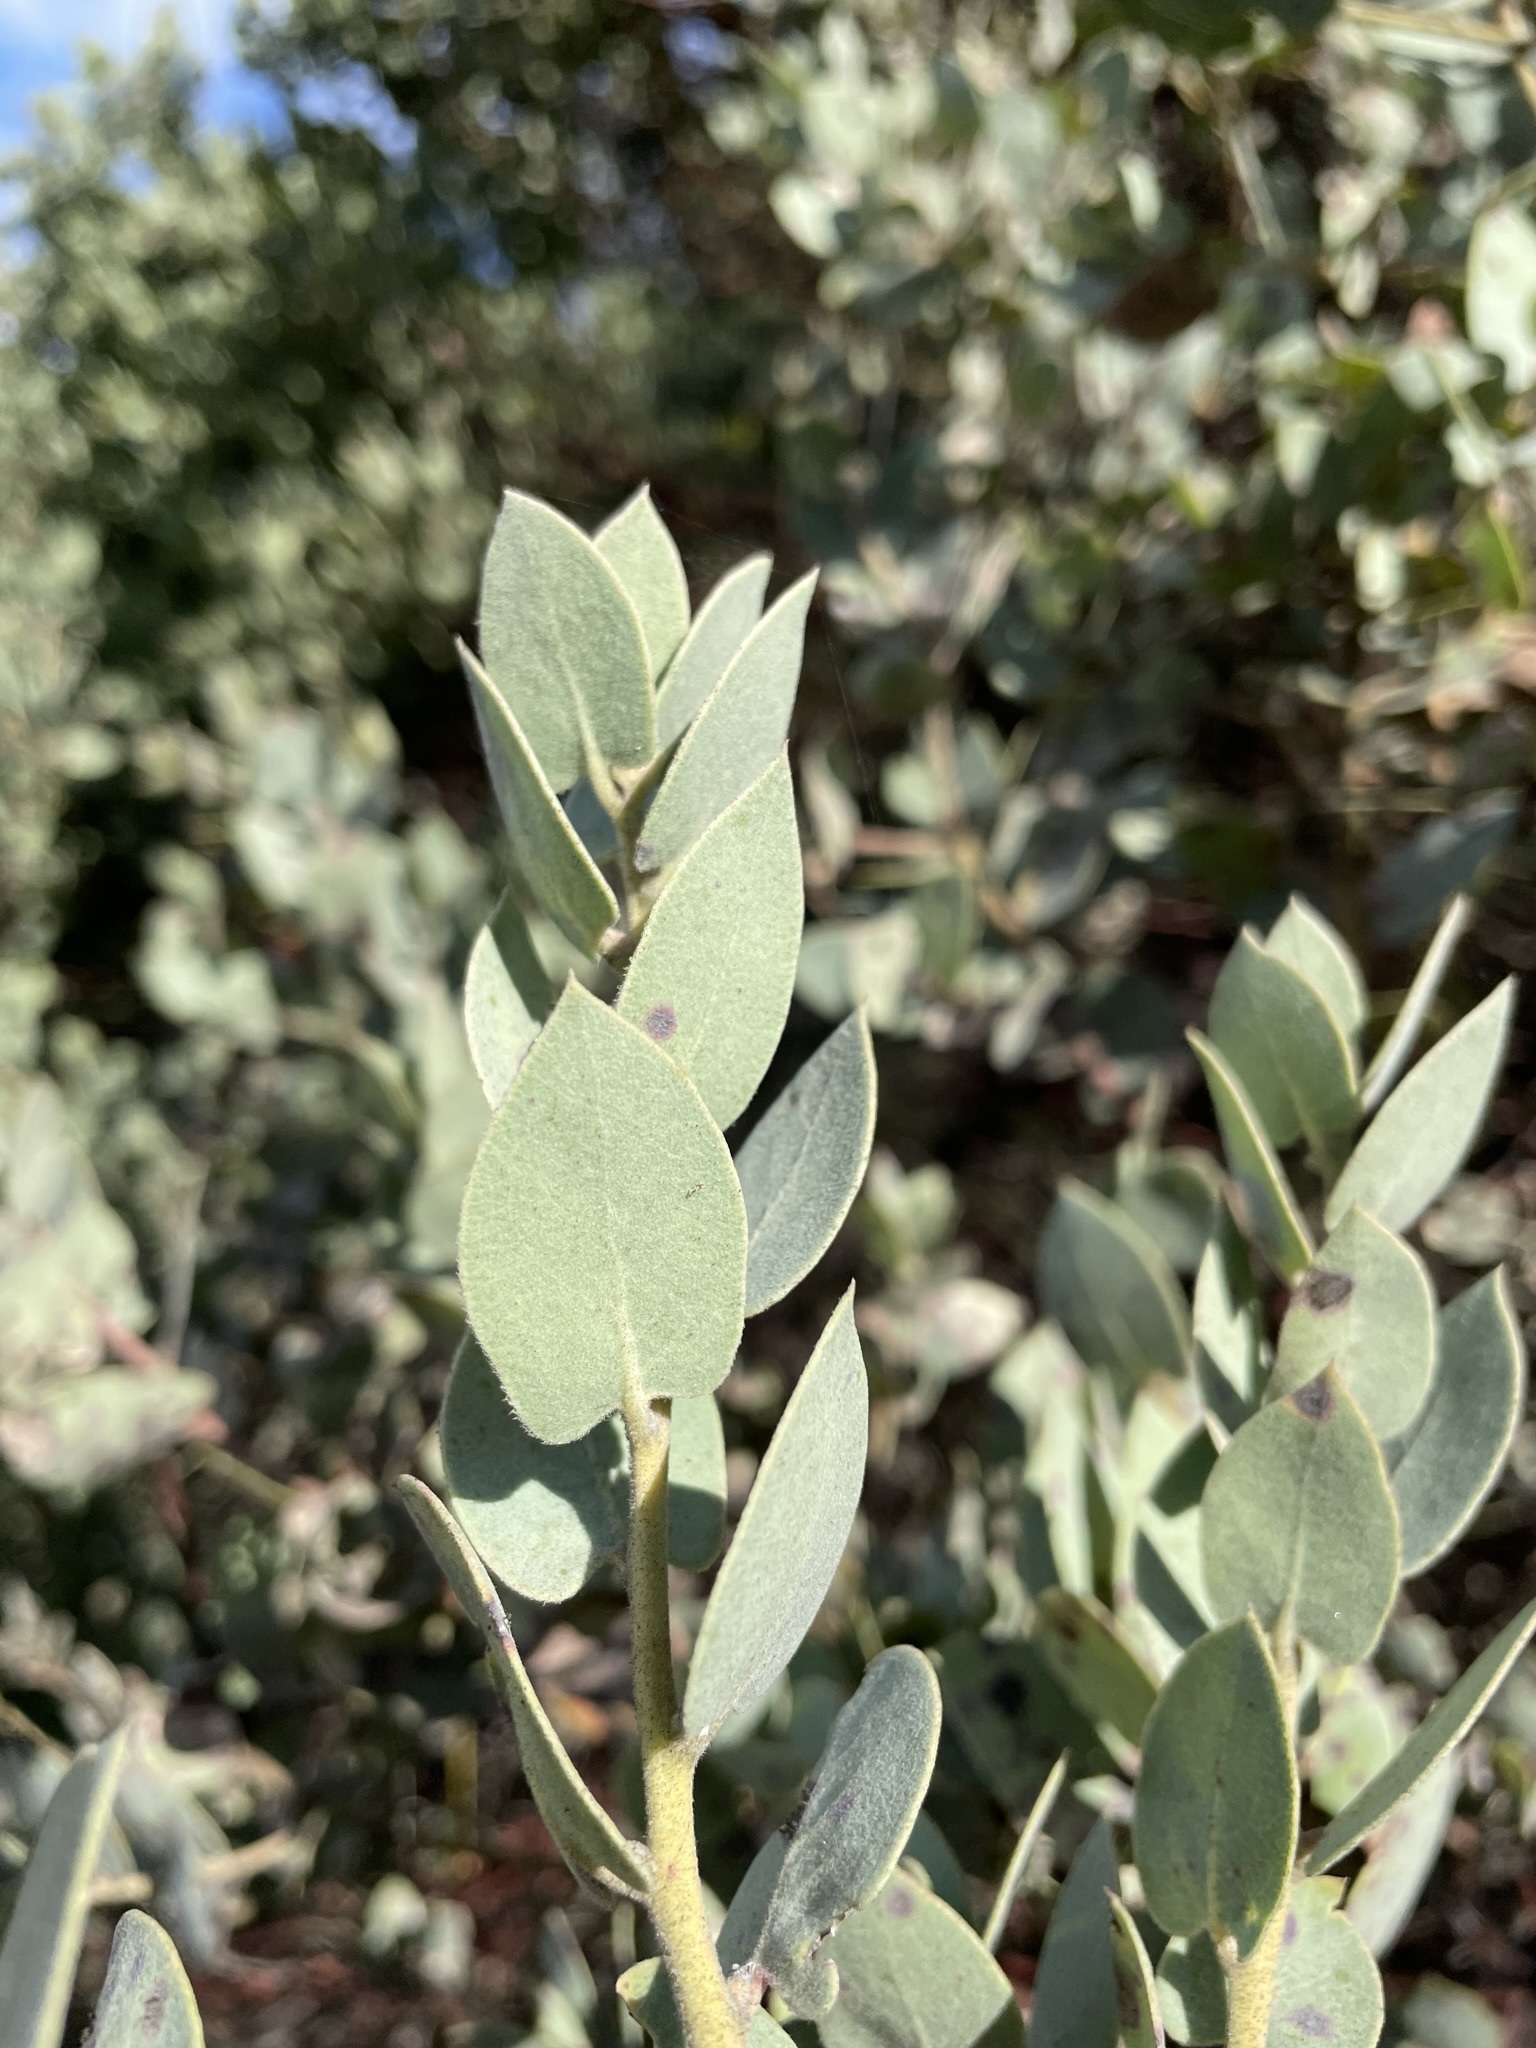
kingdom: Plantae
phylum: Tracheophyta
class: Magnoliopsida
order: Ericales
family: Ericaceae
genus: Arctostaphylos
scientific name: Arctostaphylos obispoensis
